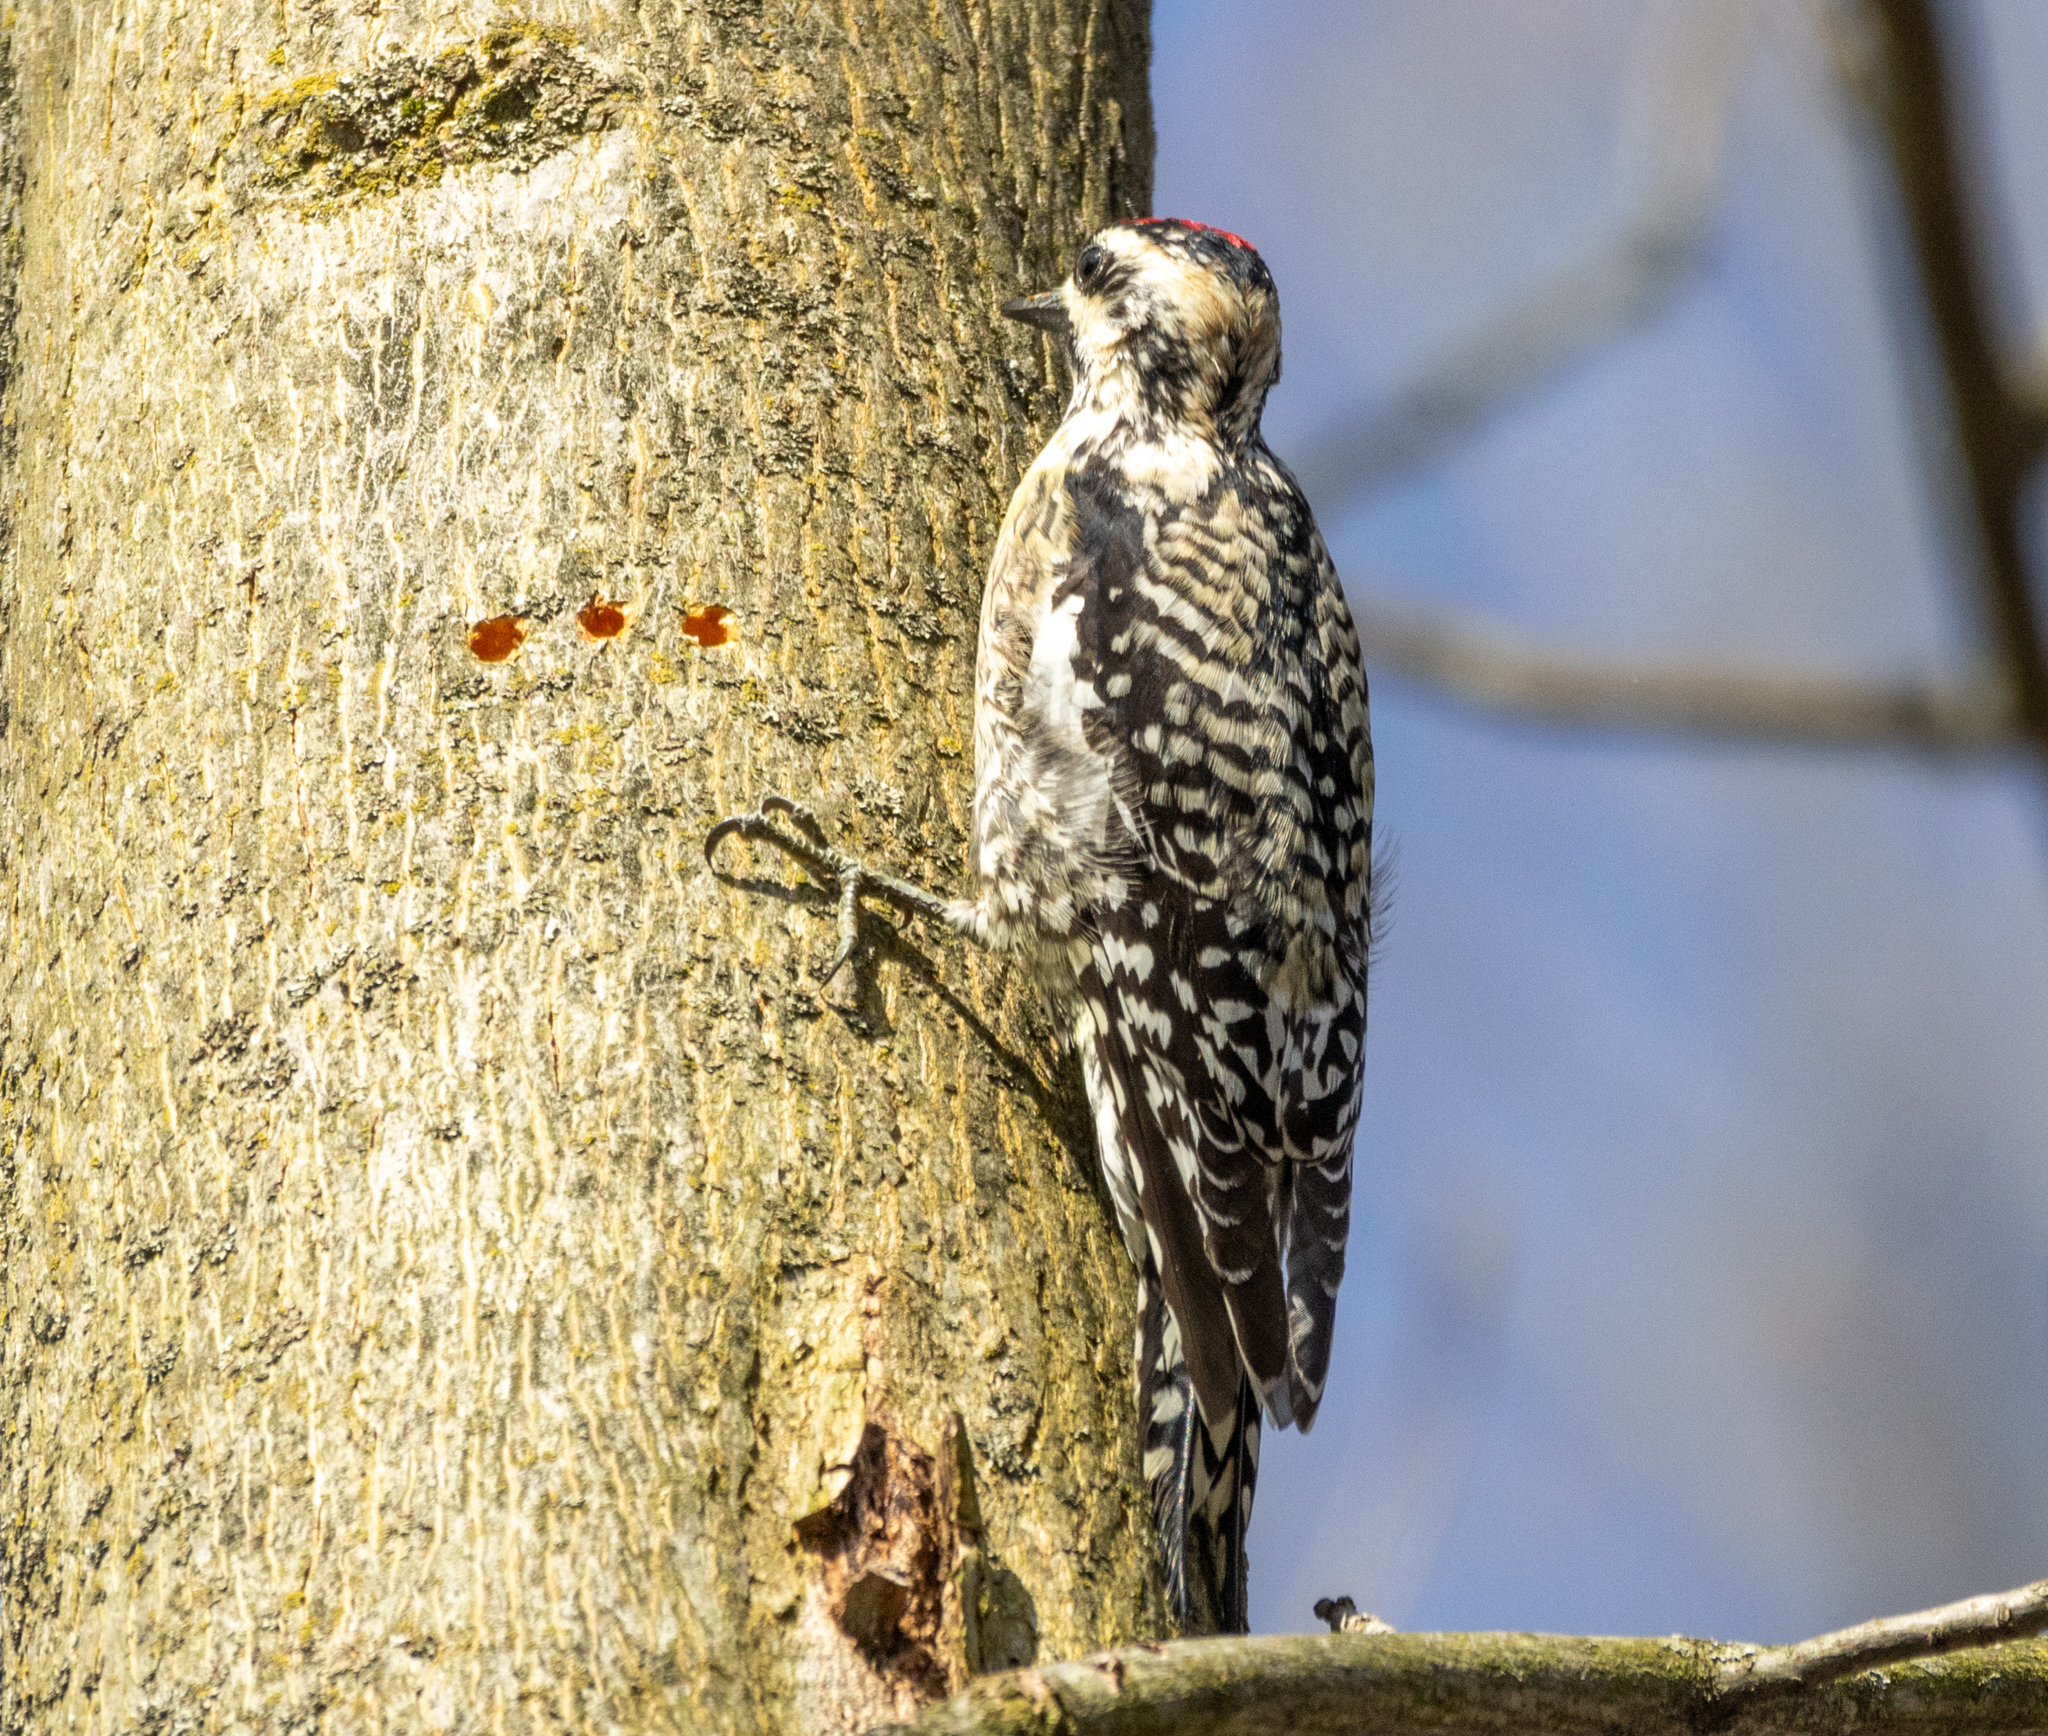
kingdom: Animalia
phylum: Chordata
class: Aves
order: Piciformes
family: Picidae
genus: Sphyrapicus
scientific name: Sphyrapicus varius
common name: Yellow-bellied sapsucker
